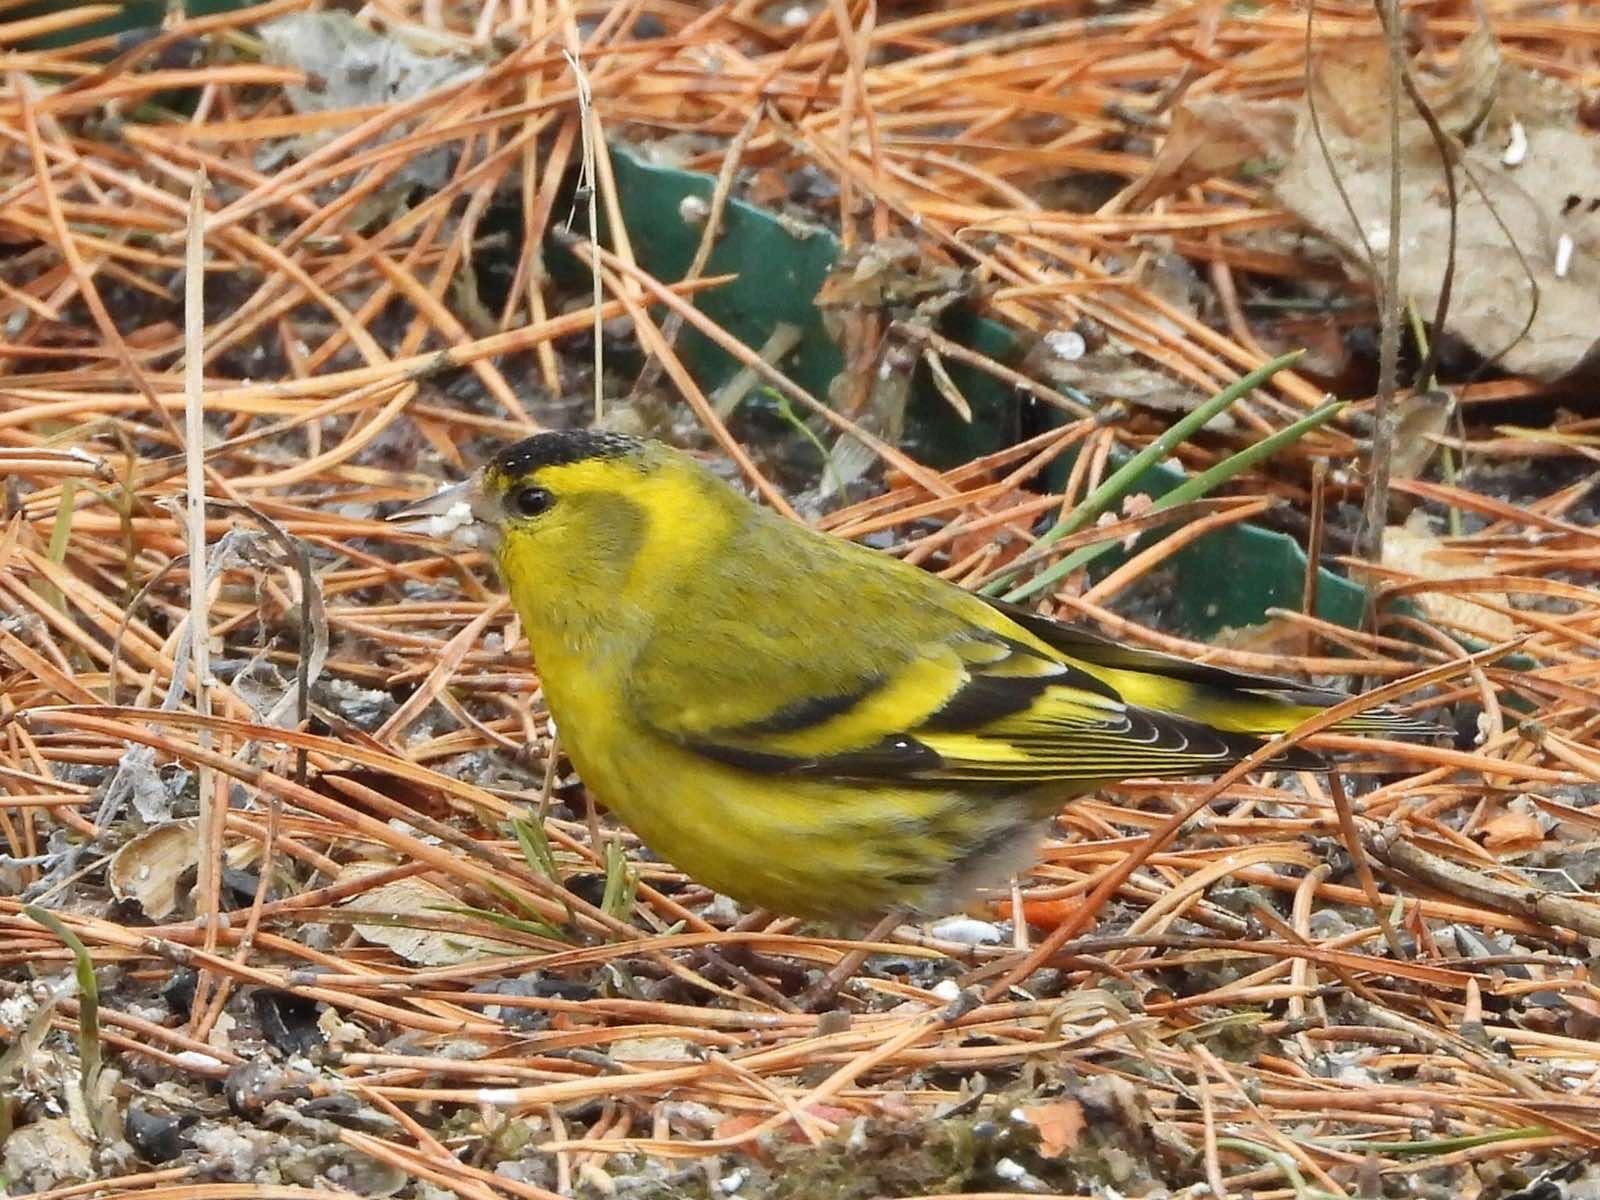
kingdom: Animalia
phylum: Chordata
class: Aves
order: Passeriformes
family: Fringillidae
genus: Spinus
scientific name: Spinus spinus
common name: Eurasian siskin
